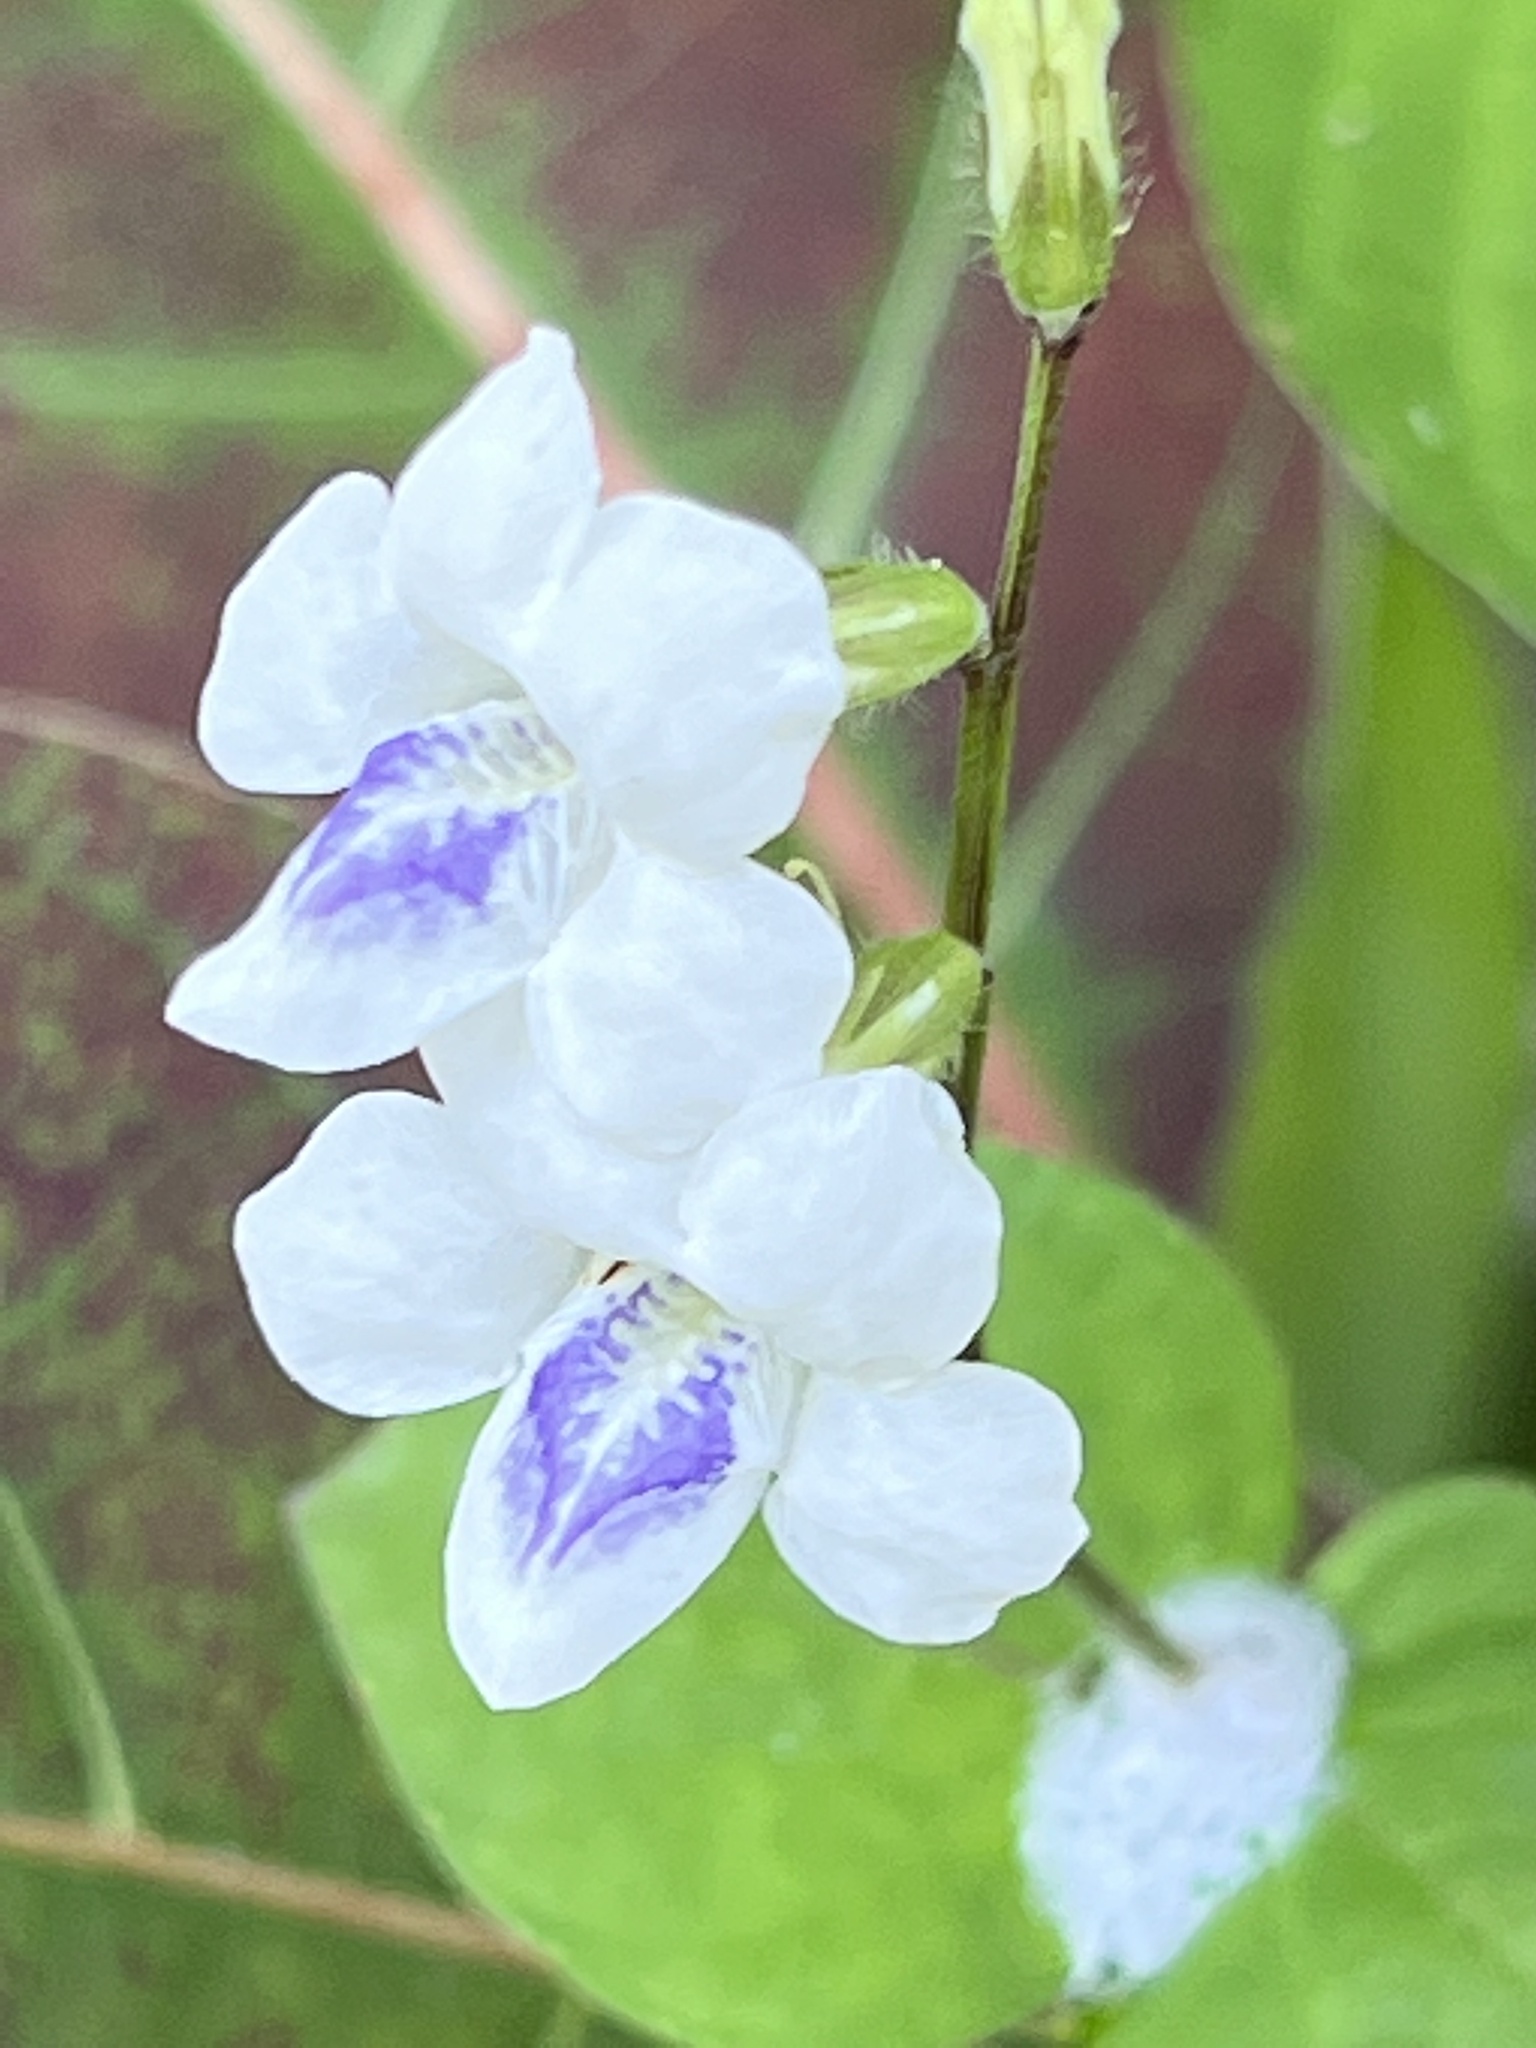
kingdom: Plantae
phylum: Tracheophyta
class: Magnoliopsida
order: Lamiales
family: Acanthaceae
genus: Asystasia
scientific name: Asystasia intrusa
